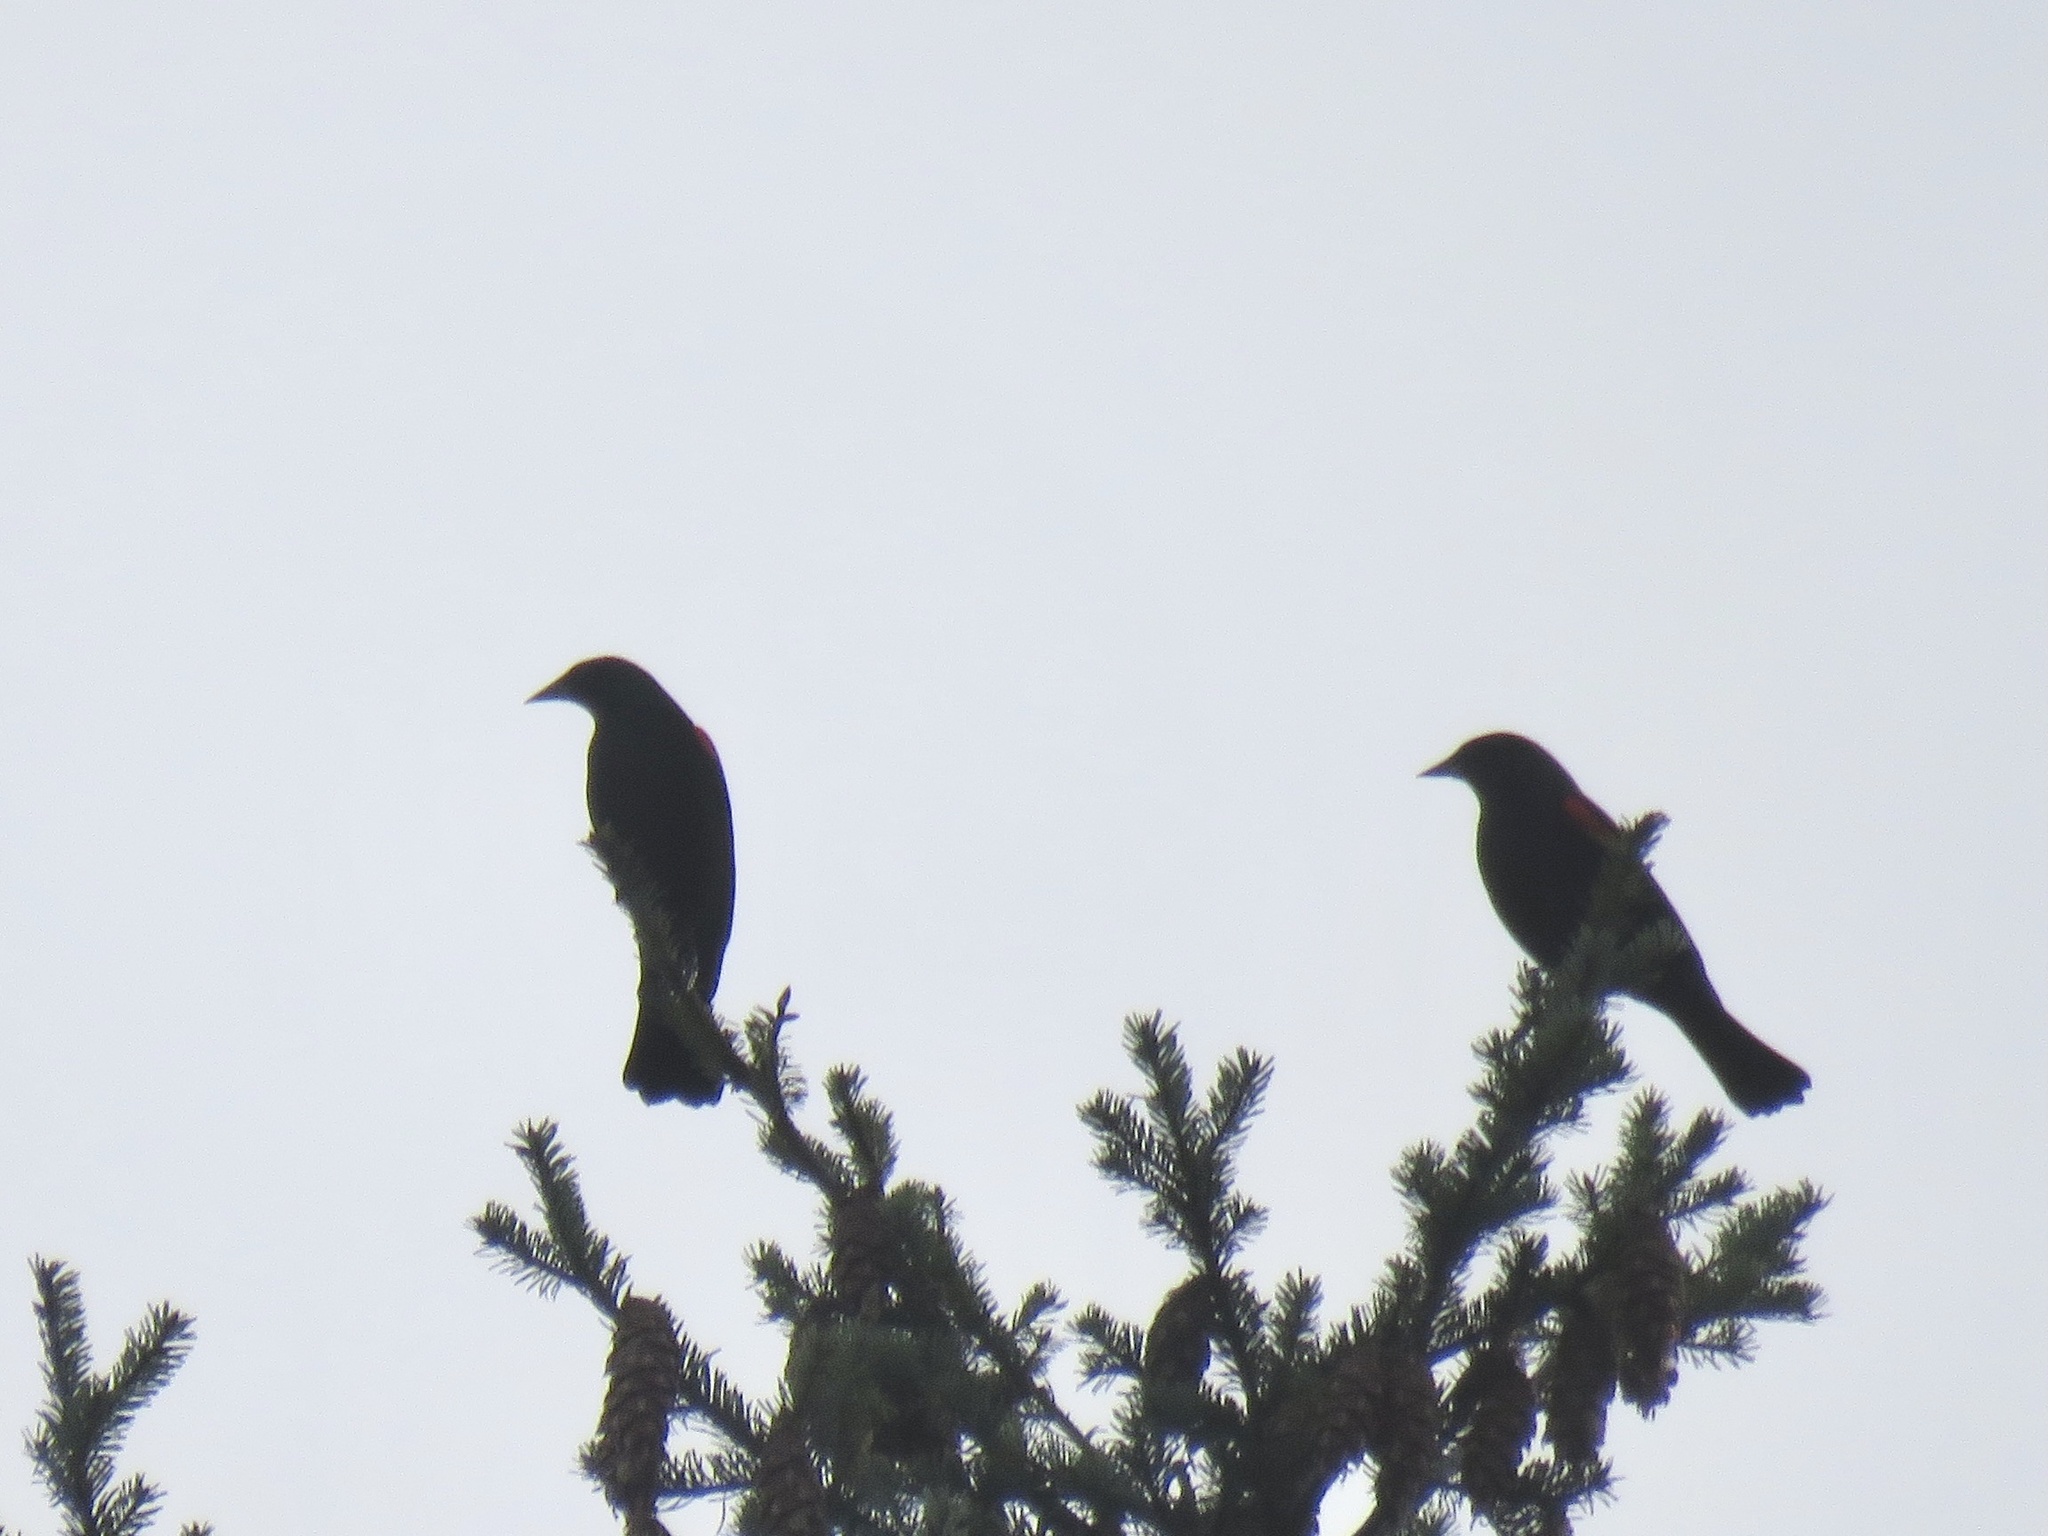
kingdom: Animalia
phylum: Chordata
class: Aves
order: Passeriformes
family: Icteridae
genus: Agelaius
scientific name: Agelaius phoeniceus
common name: Red-winged blackbird
